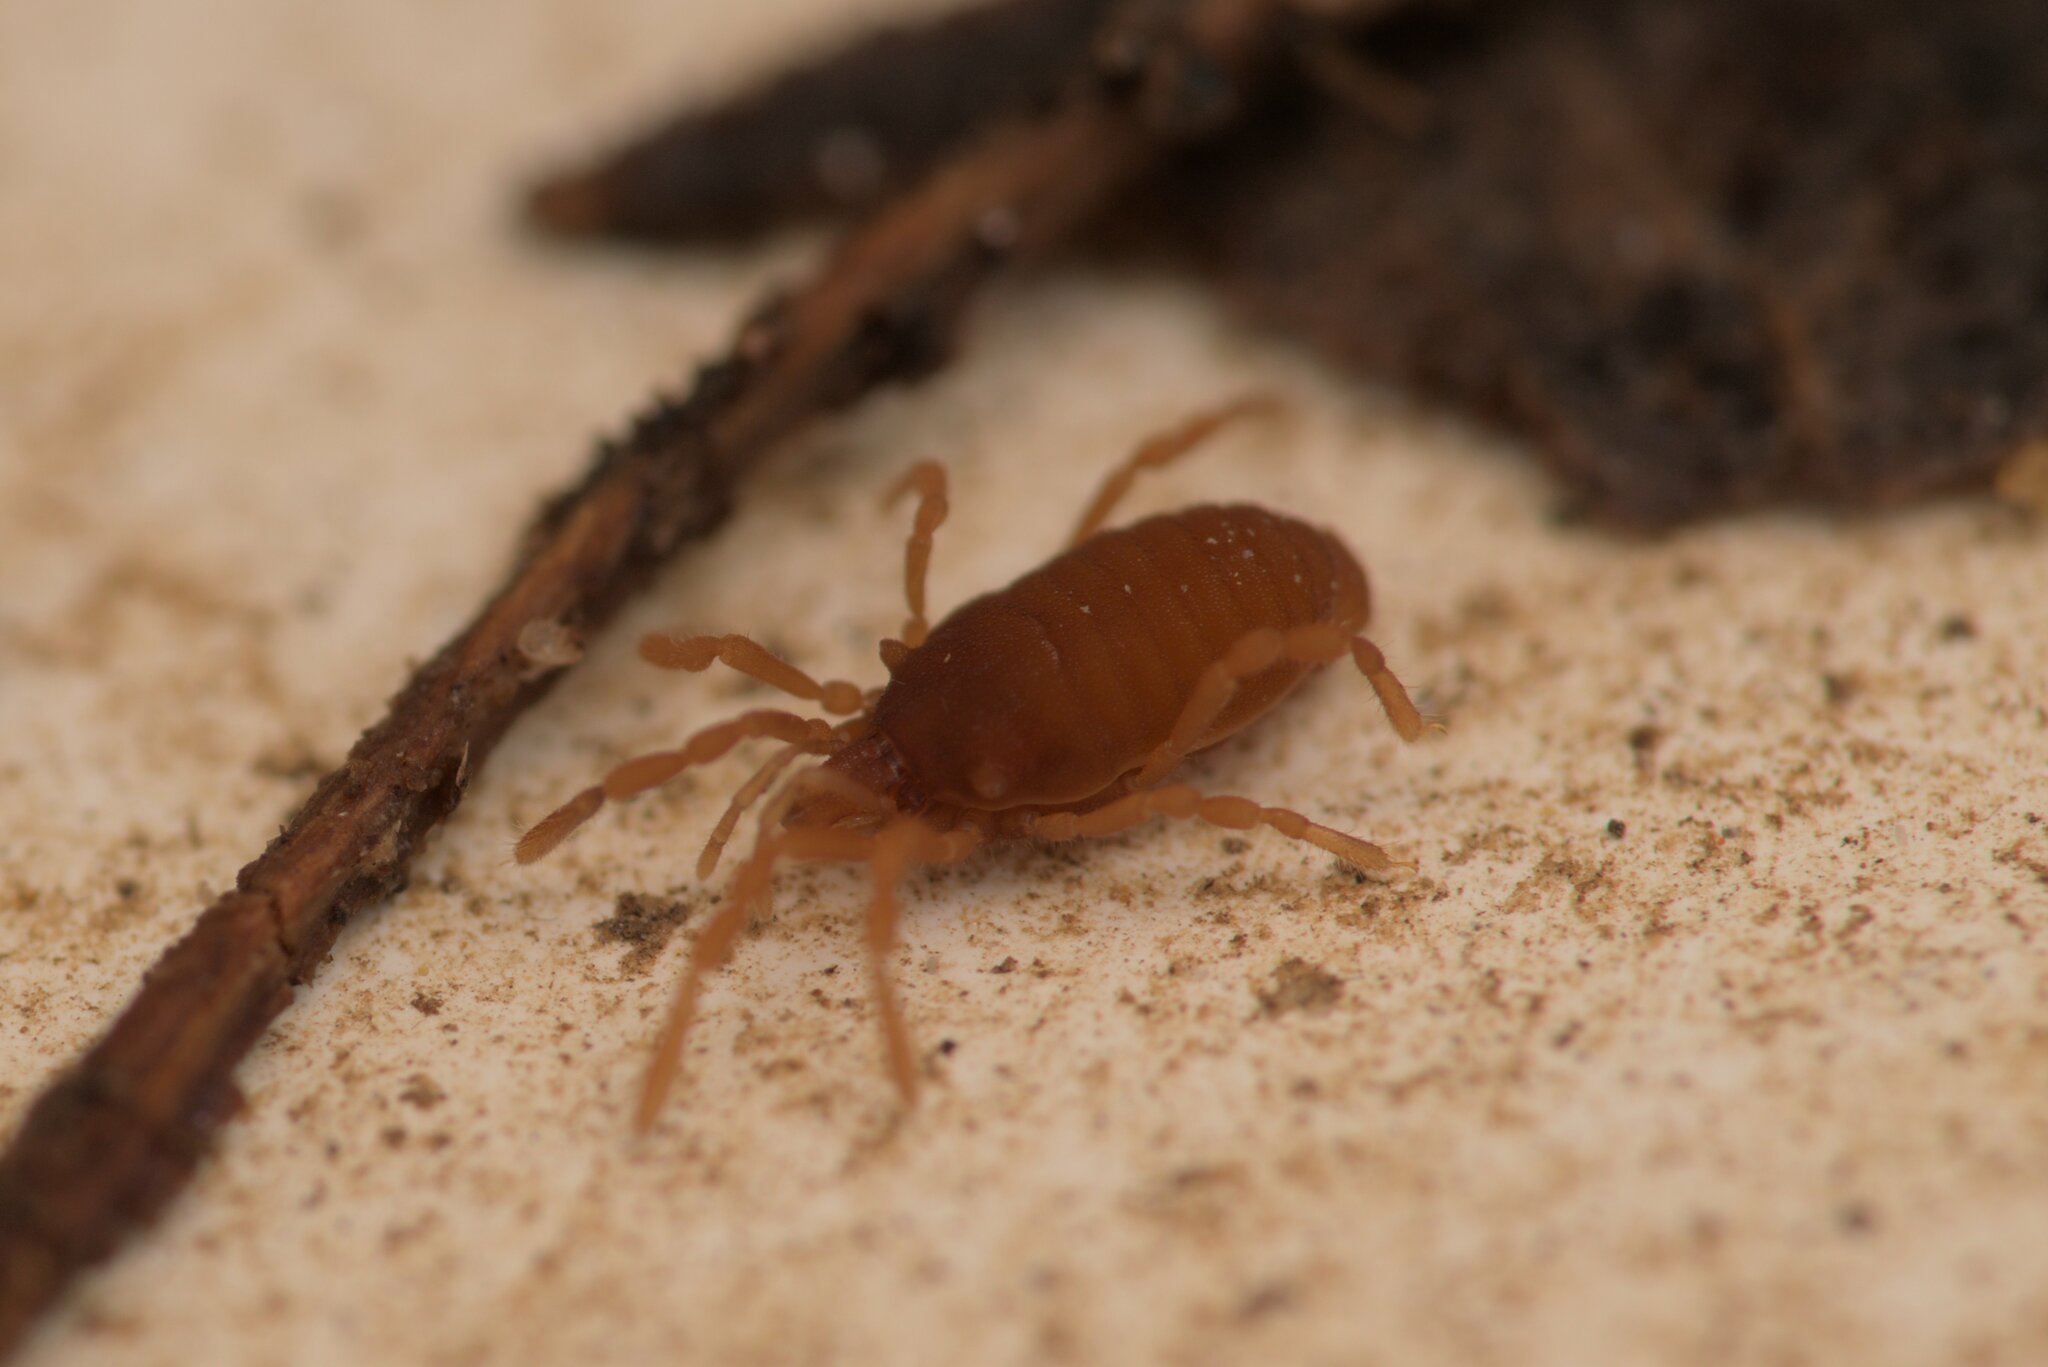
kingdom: Animalia
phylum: Arthropoda
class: Arachnida
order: Opiliones
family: Sironidae
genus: Siro
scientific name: Siro rubens
